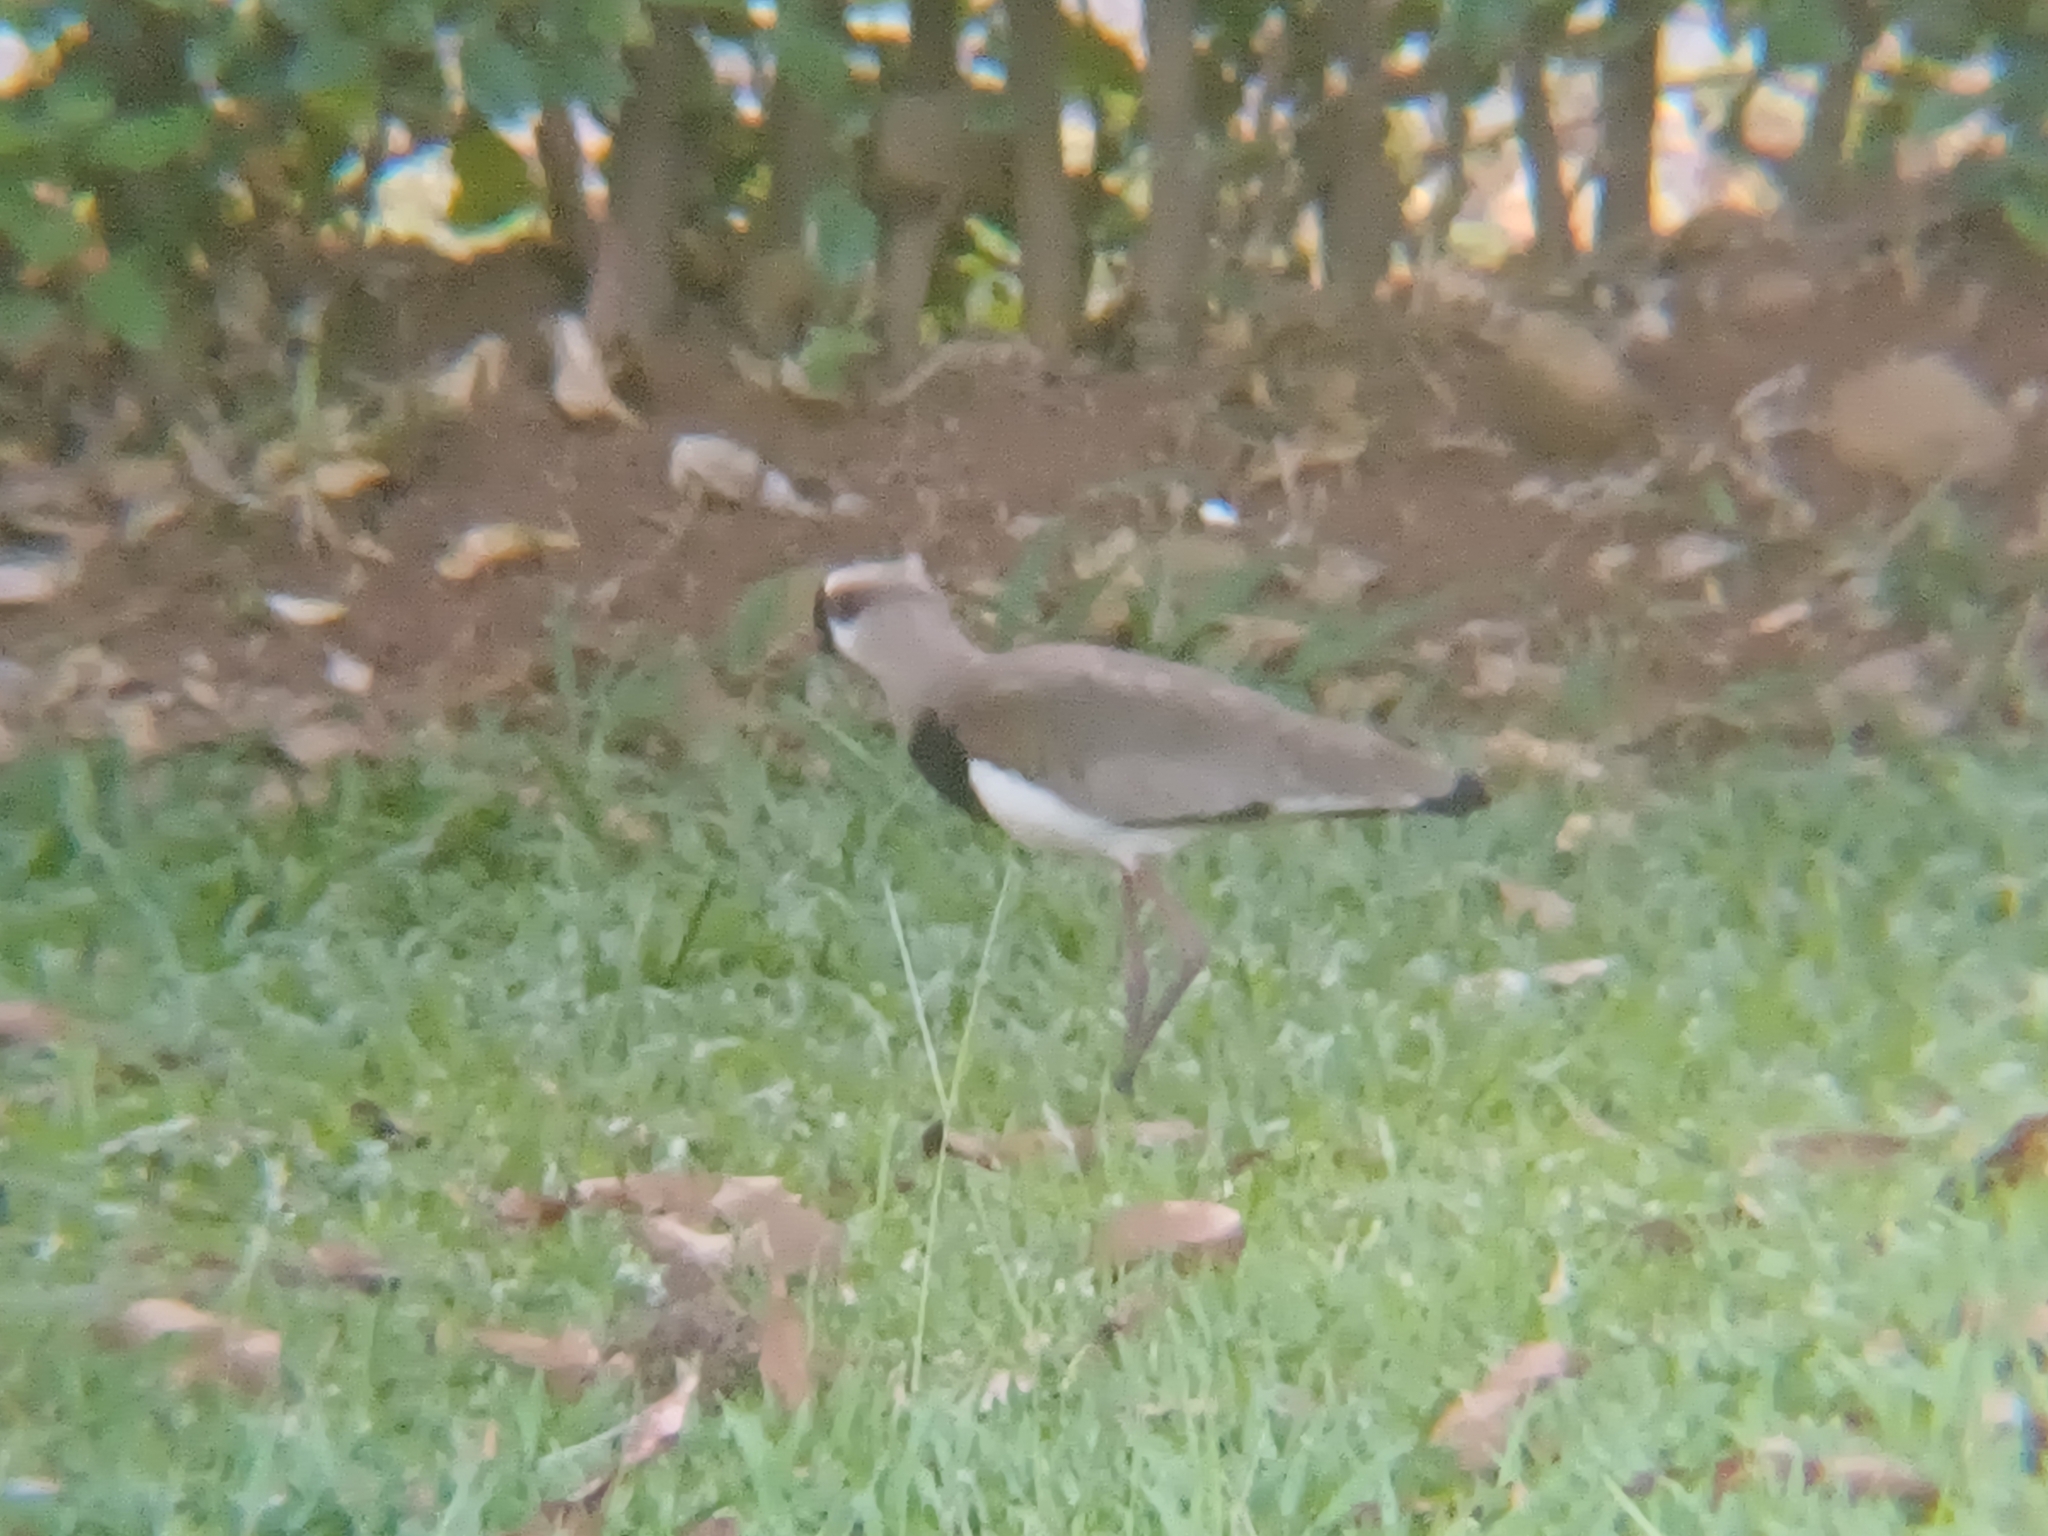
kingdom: Animalia
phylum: Chordata
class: Aves
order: Charadriiformes
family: Charadriidae
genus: Vanellus
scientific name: Vanellus chilensis
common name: Southern lapwing
